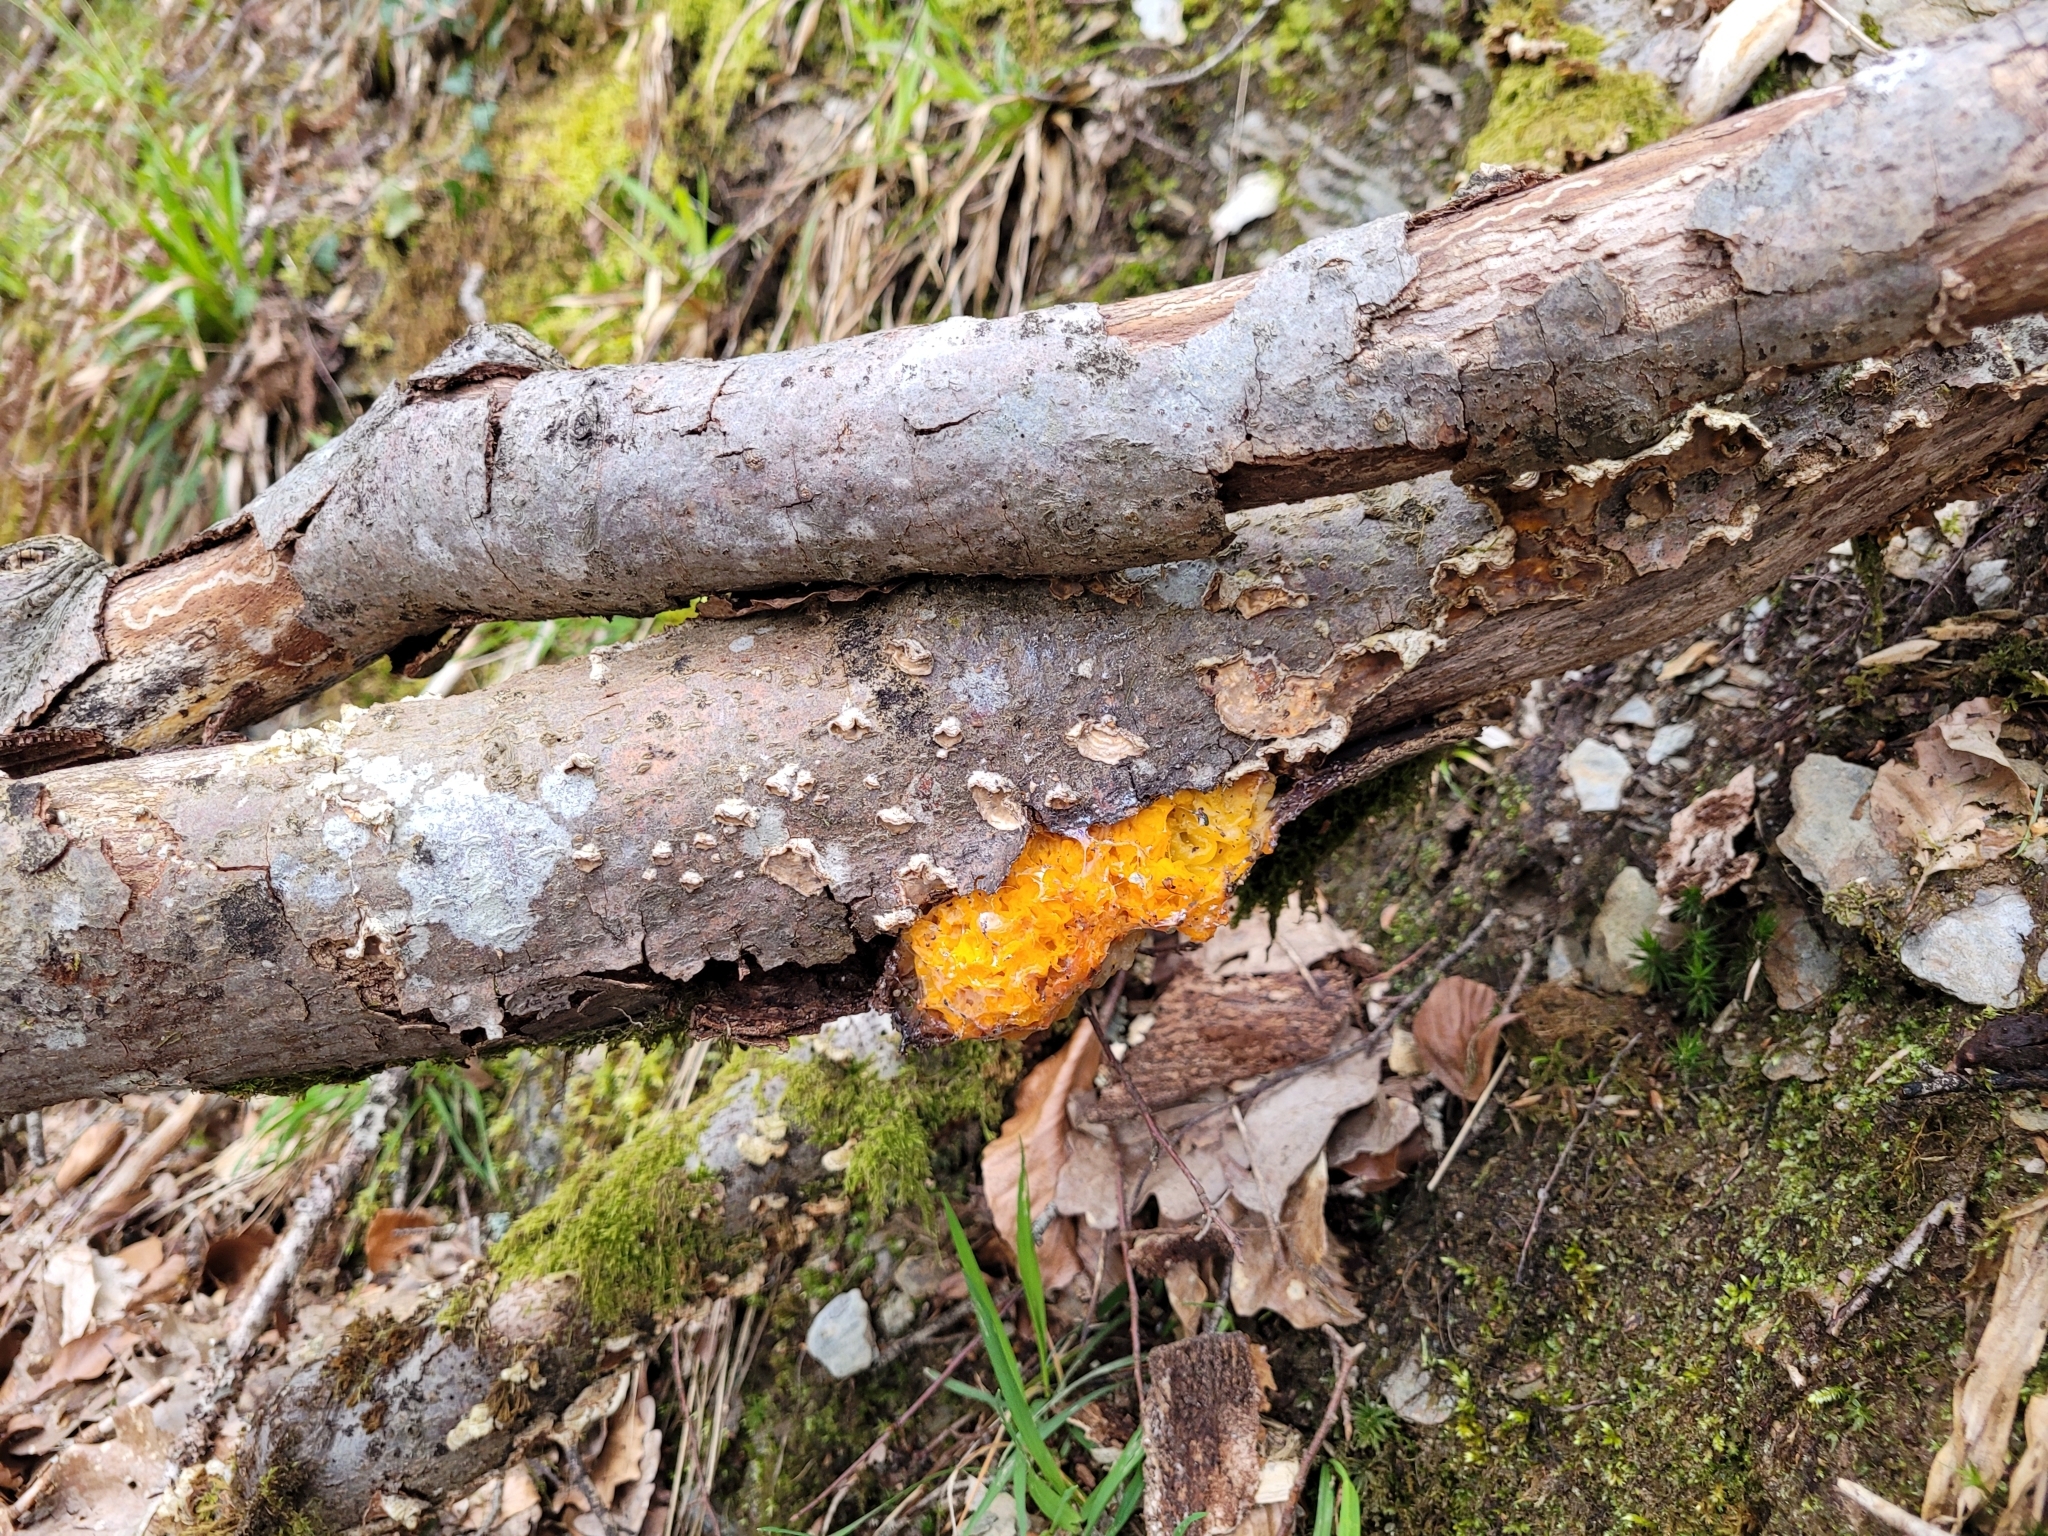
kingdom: Fungi
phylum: Basidiomycota
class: Tremellomycetes
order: Tremellales
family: Naemateliaceae
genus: Naematelia
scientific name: Naematelia aurantia
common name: Golden ear
